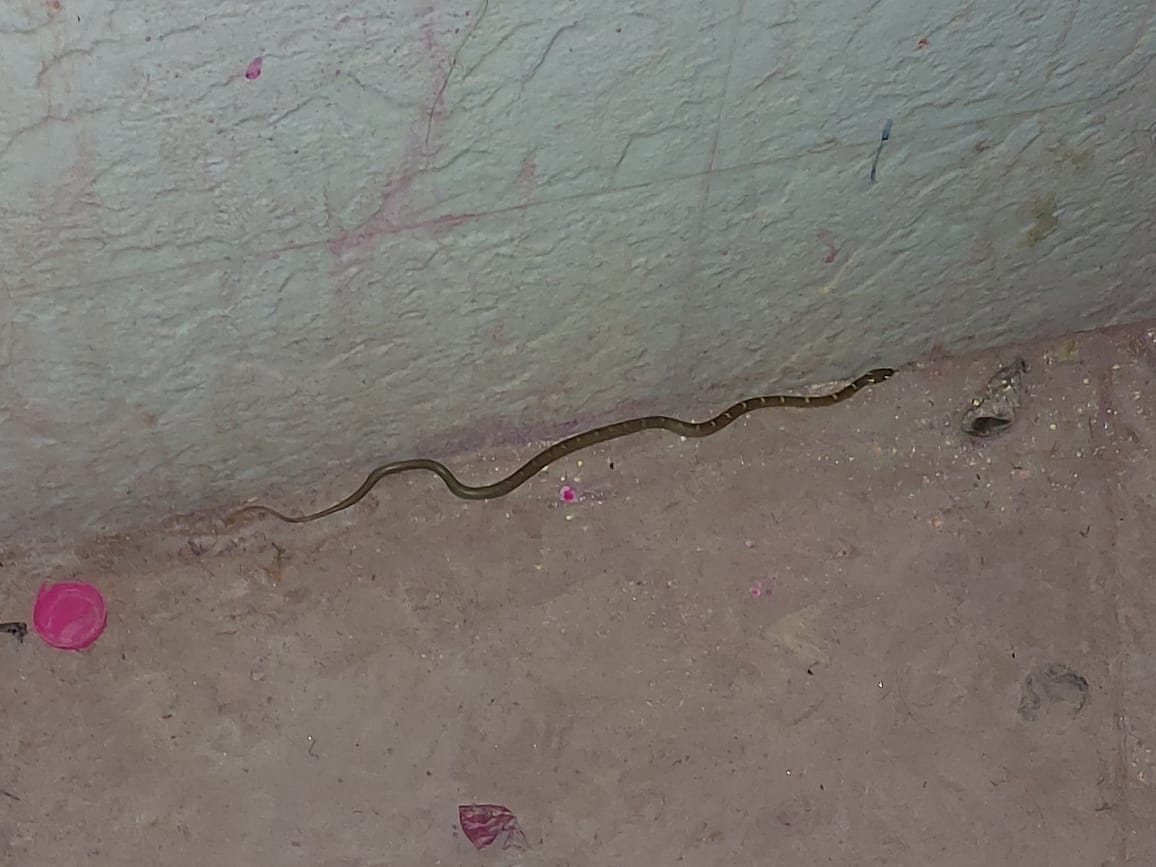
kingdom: Animalia
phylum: Chordata
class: Squamata
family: Colubridae
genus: Lycodon
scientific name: Lycodon aulicus
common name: Common wolf snake
